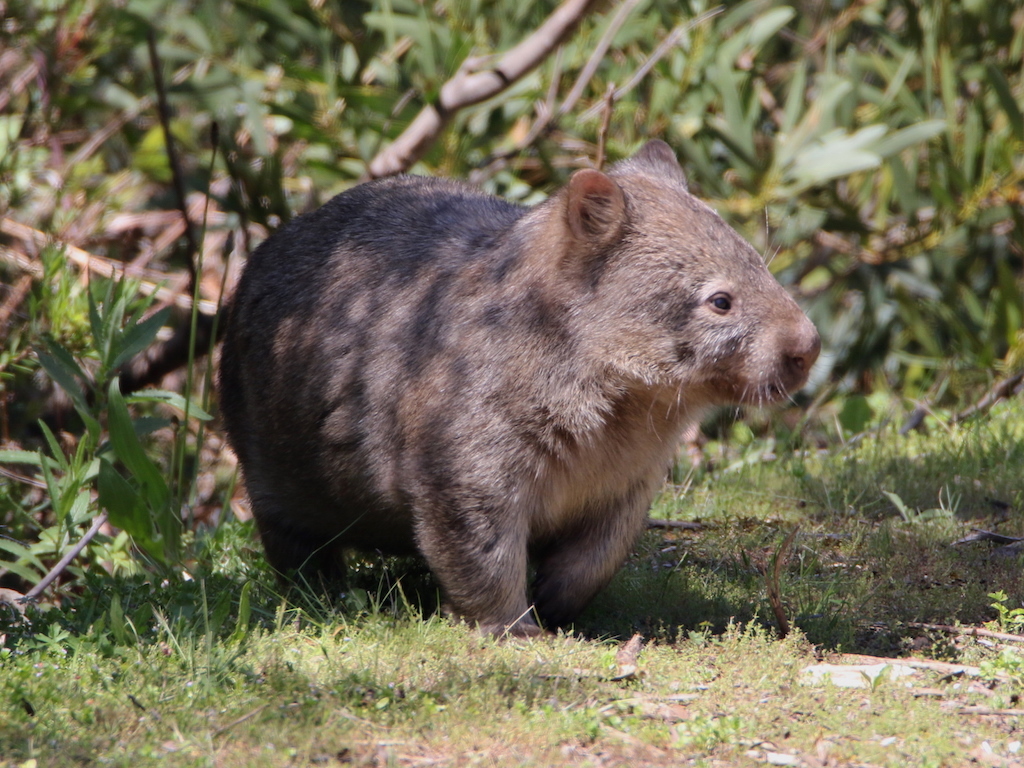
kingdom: Animalia
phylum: Chordata
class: Mammalia
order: Diprotodontia
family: Vombatidae
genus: Vombatus
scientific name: Vombatus ursinus
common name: Common wombat
